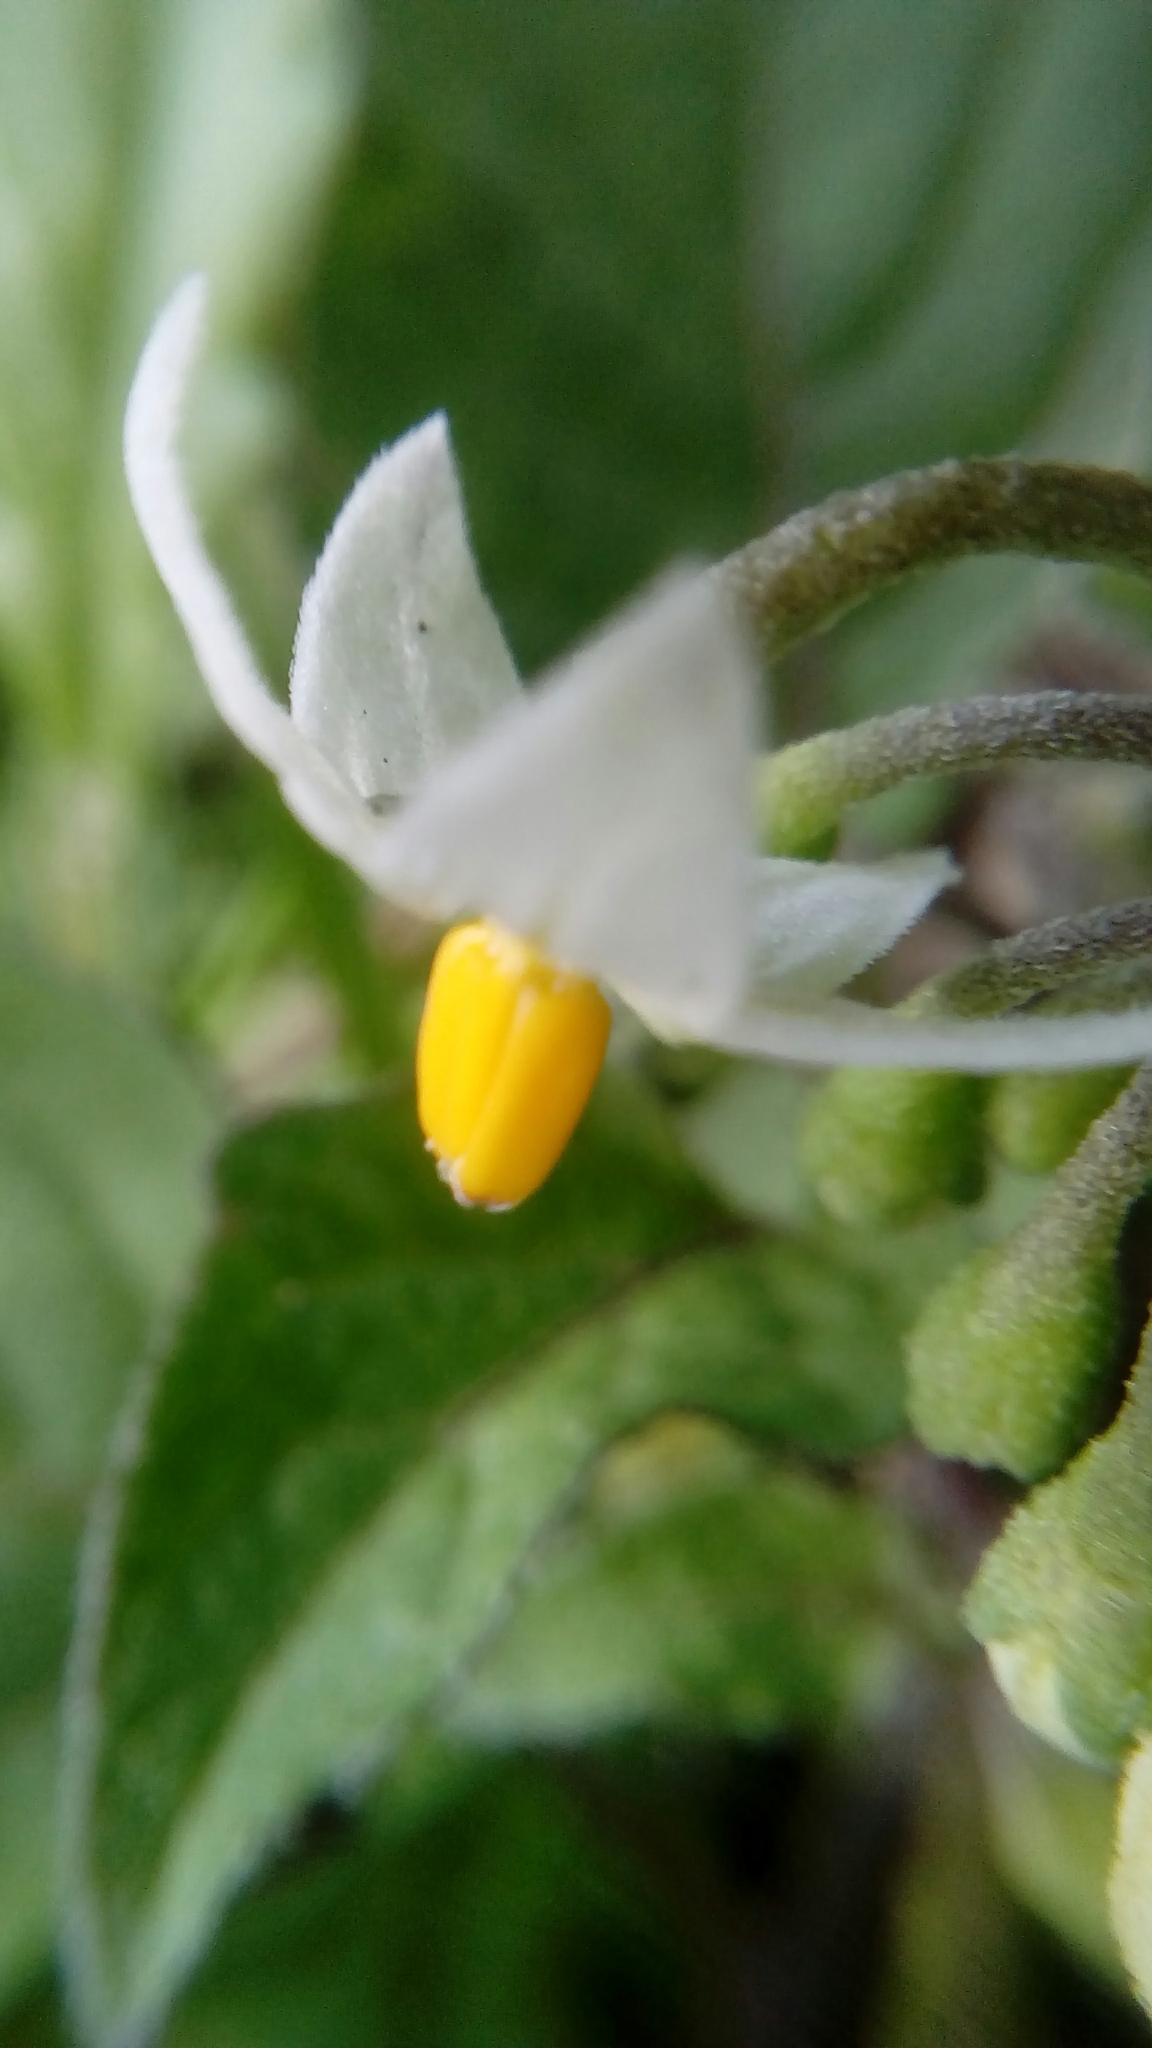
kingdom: Plantae
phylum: Tracheophyta
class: Magnoliopsida
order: Solanales
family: Solanaceae
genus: Solanum
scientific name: Solanum nigrum
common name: Black nightshade
